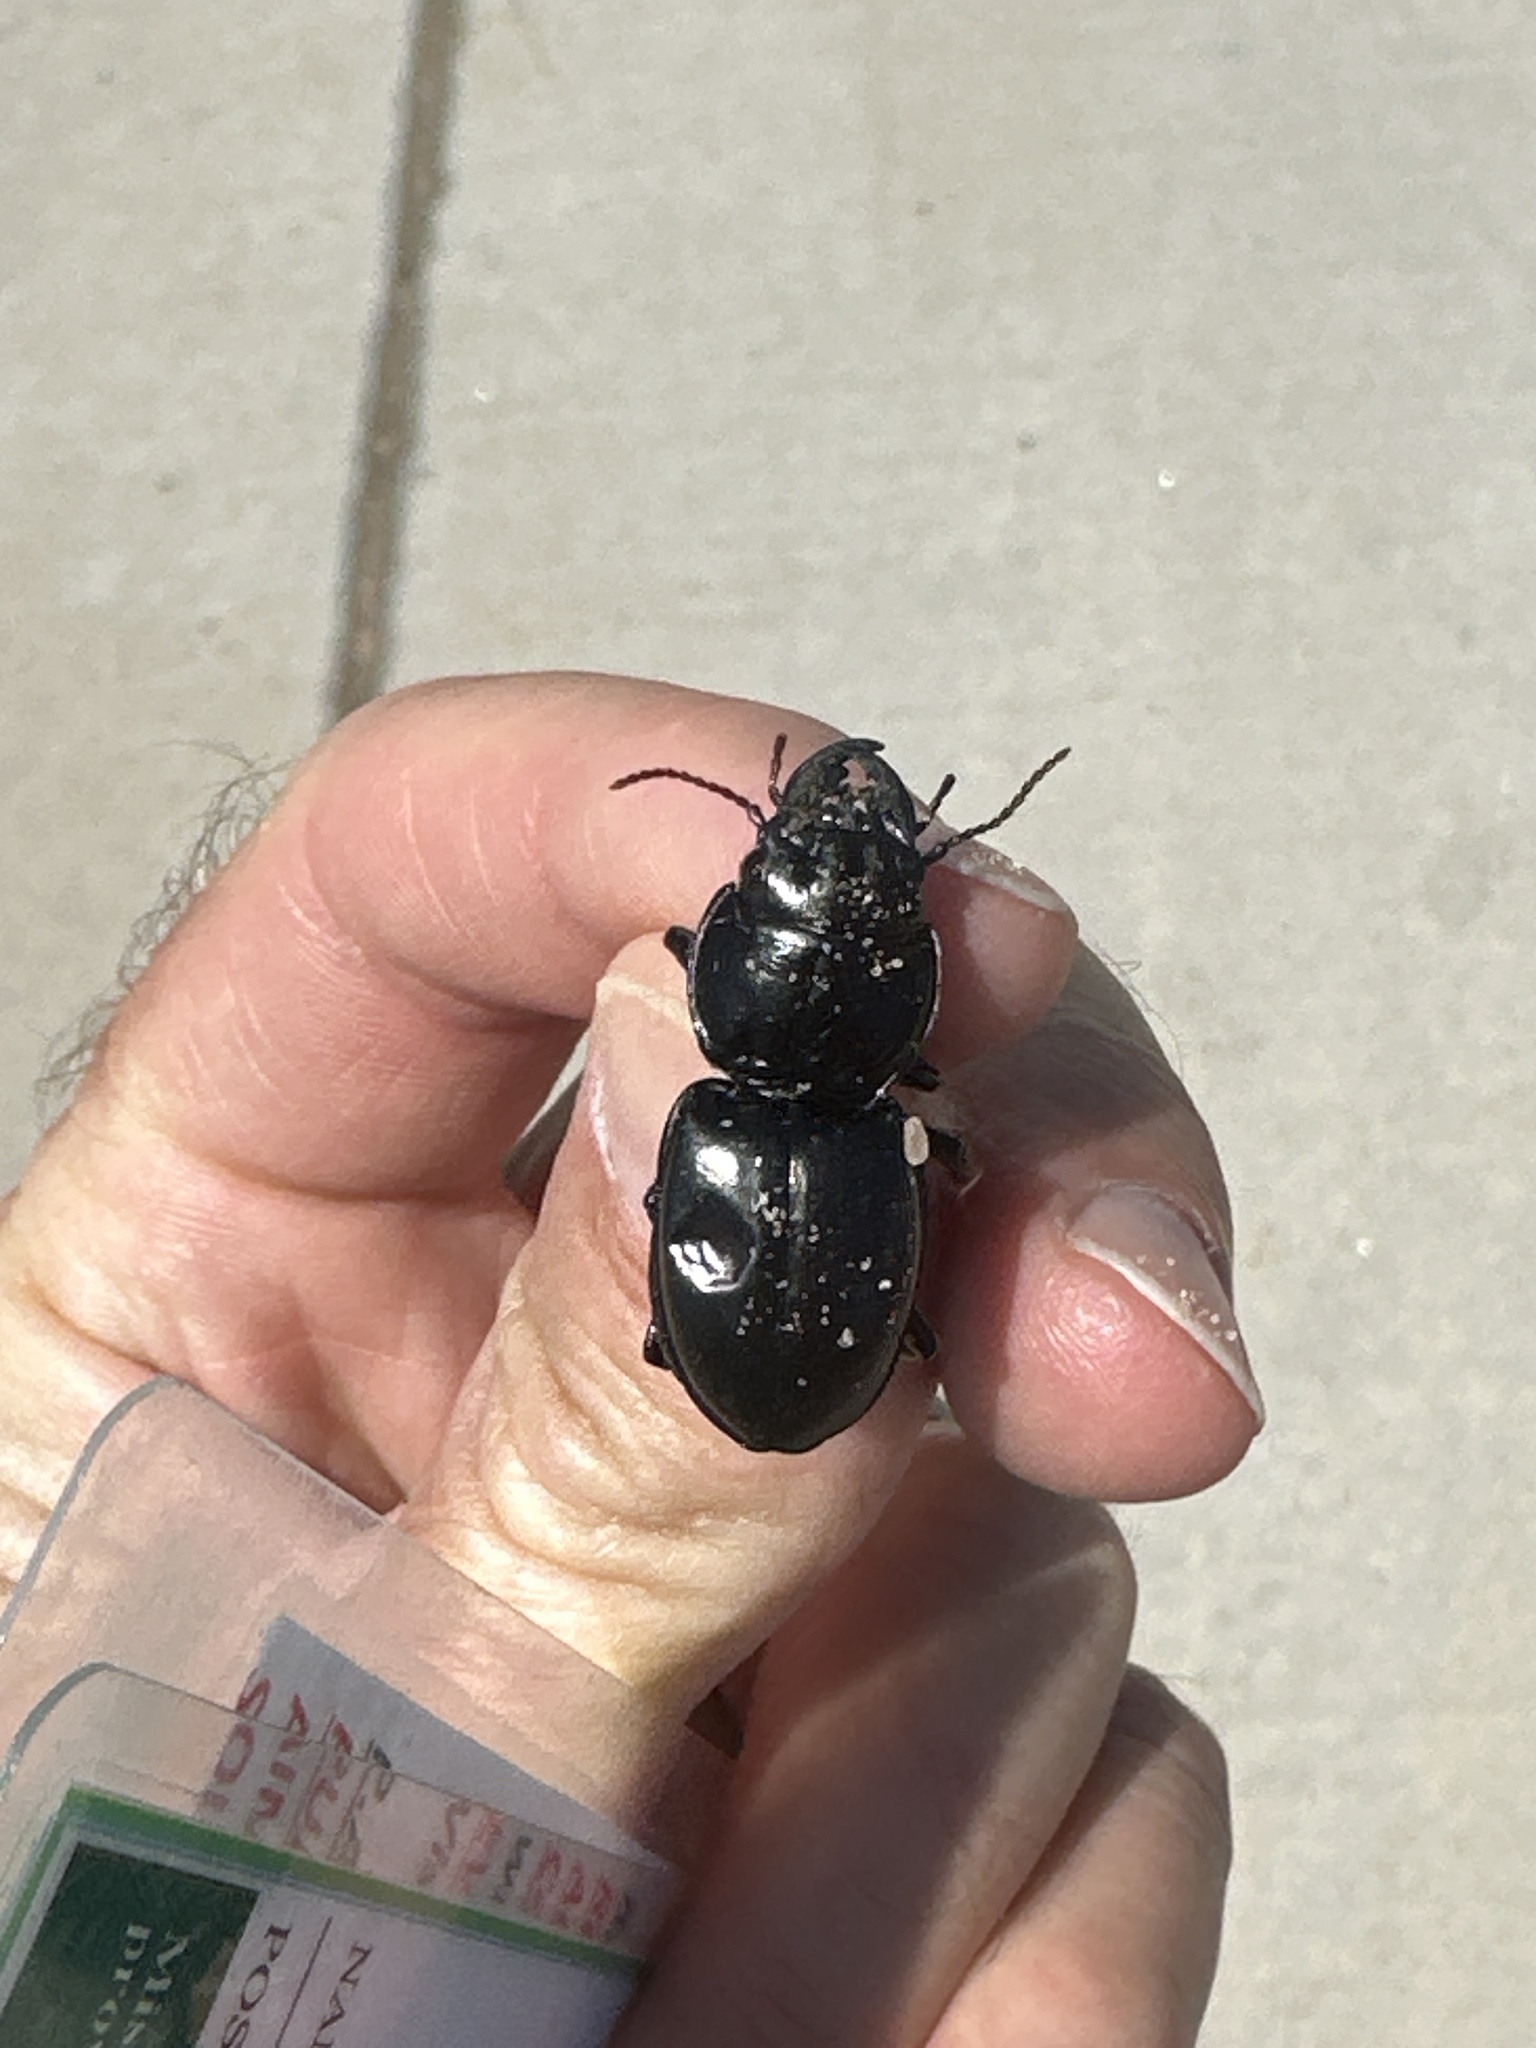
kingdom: Animalia
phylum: Arthropoda
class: Insecta
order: Coleoptera
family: Carabidae
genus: Pasimachus
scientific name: Pasimachus elongatus
